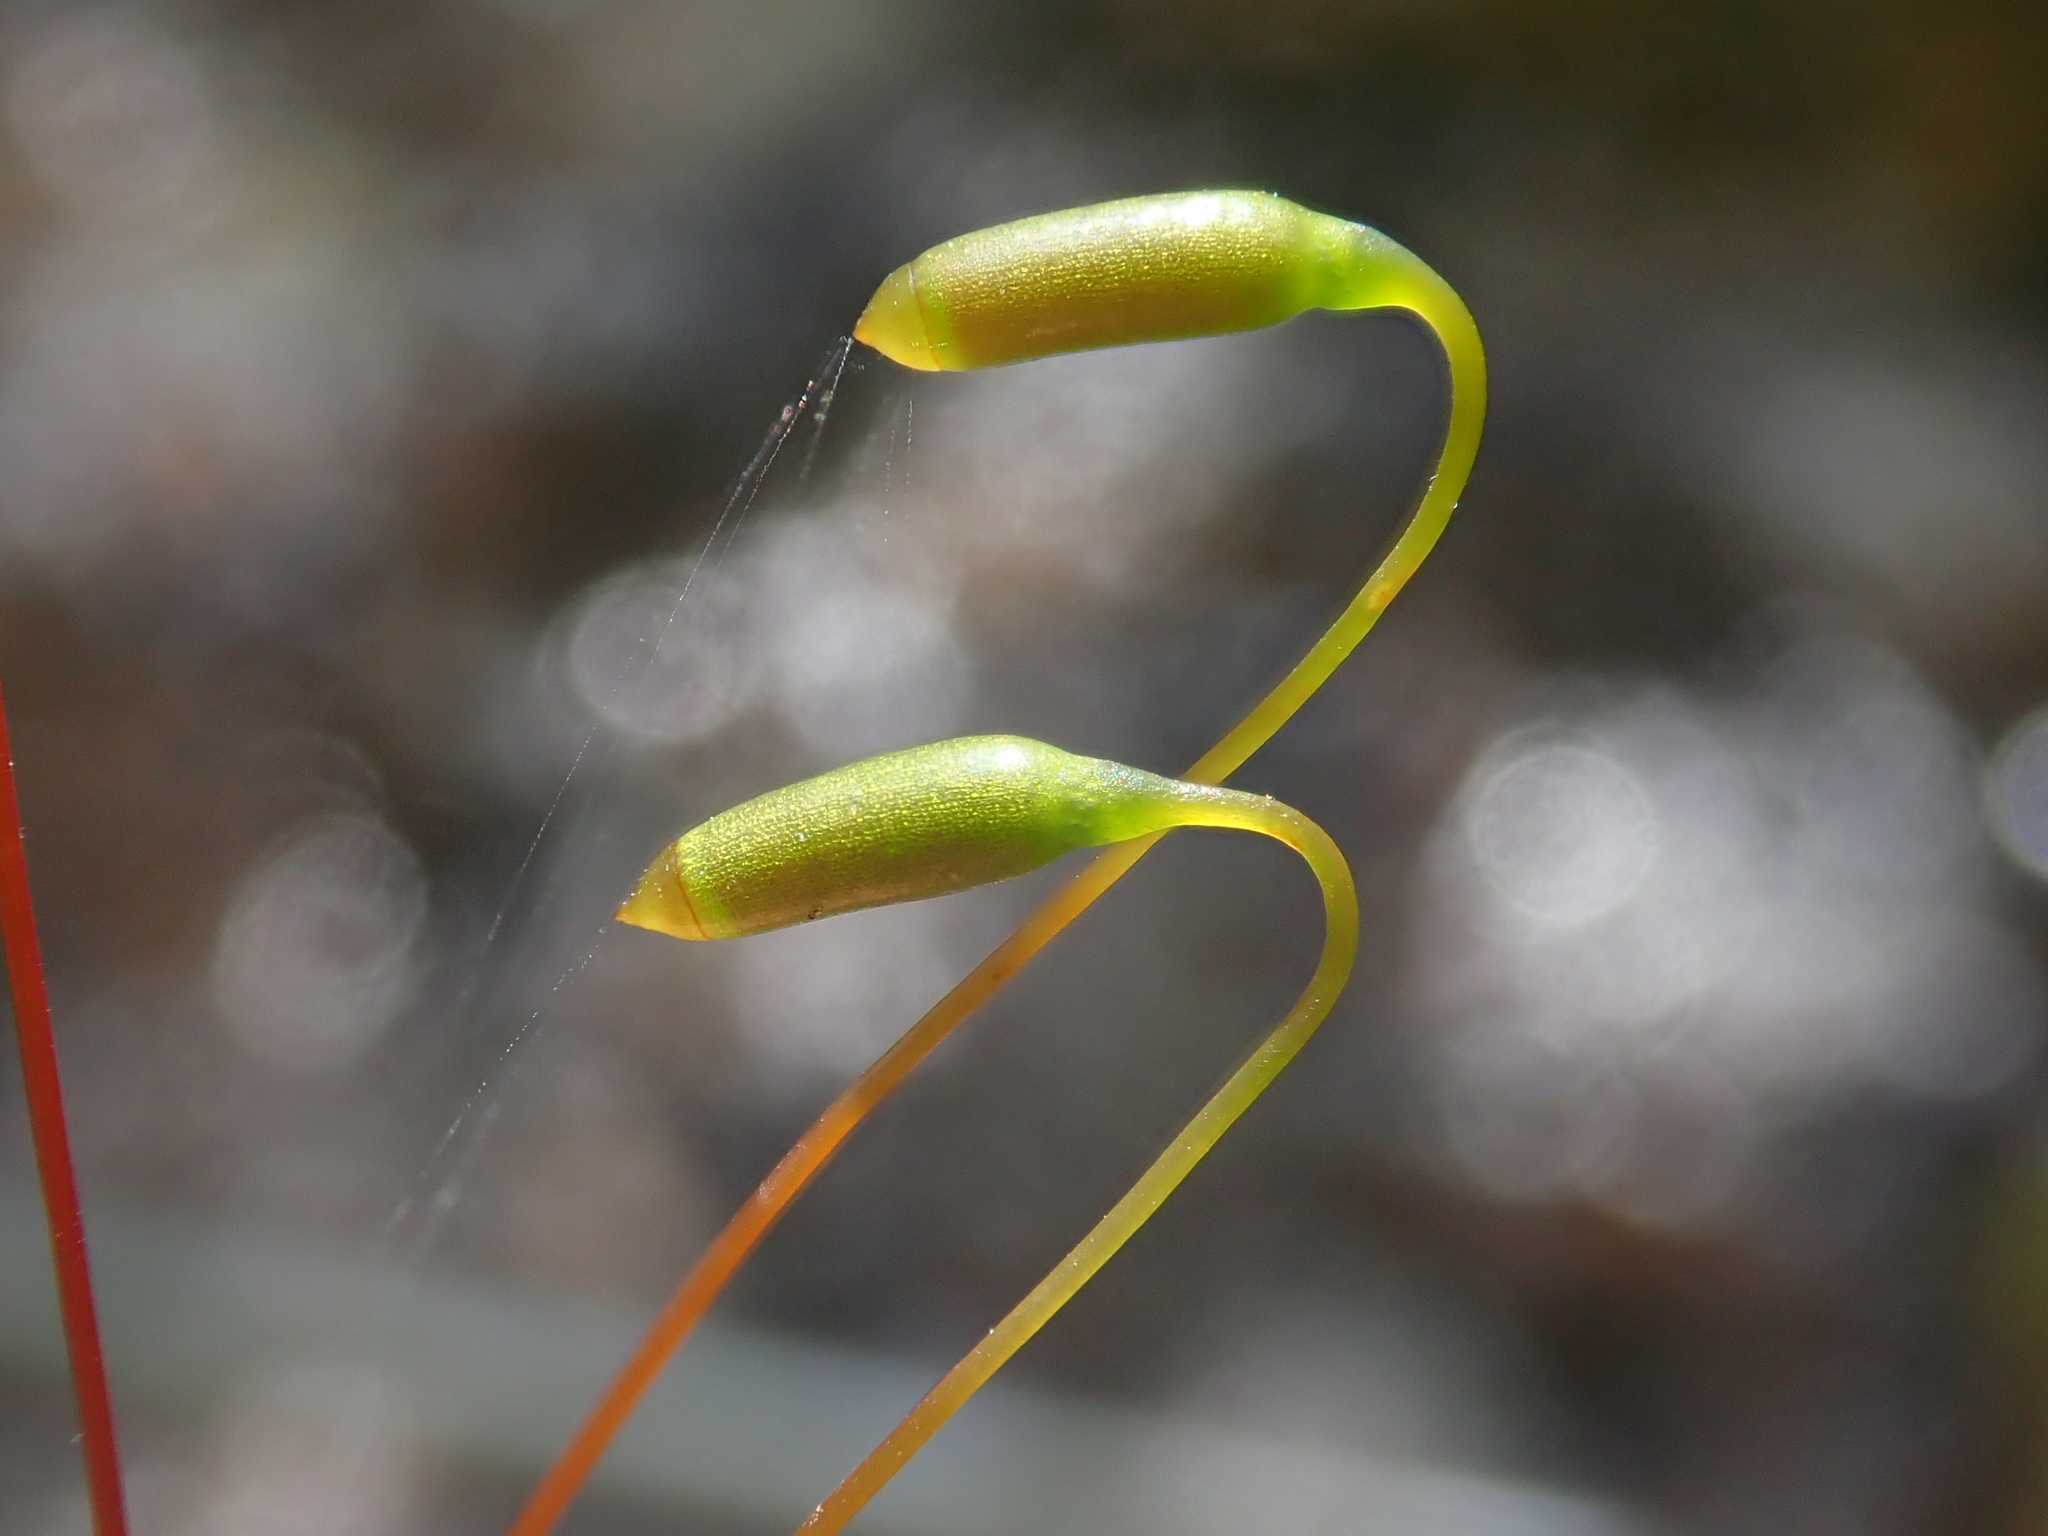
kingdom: Plantae
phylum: Bryophyta
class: Bryopsida
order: Bryales
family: Mniaceae
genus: Mnium
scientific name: Mnium hornum
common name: Swan's-neck leafy moss
